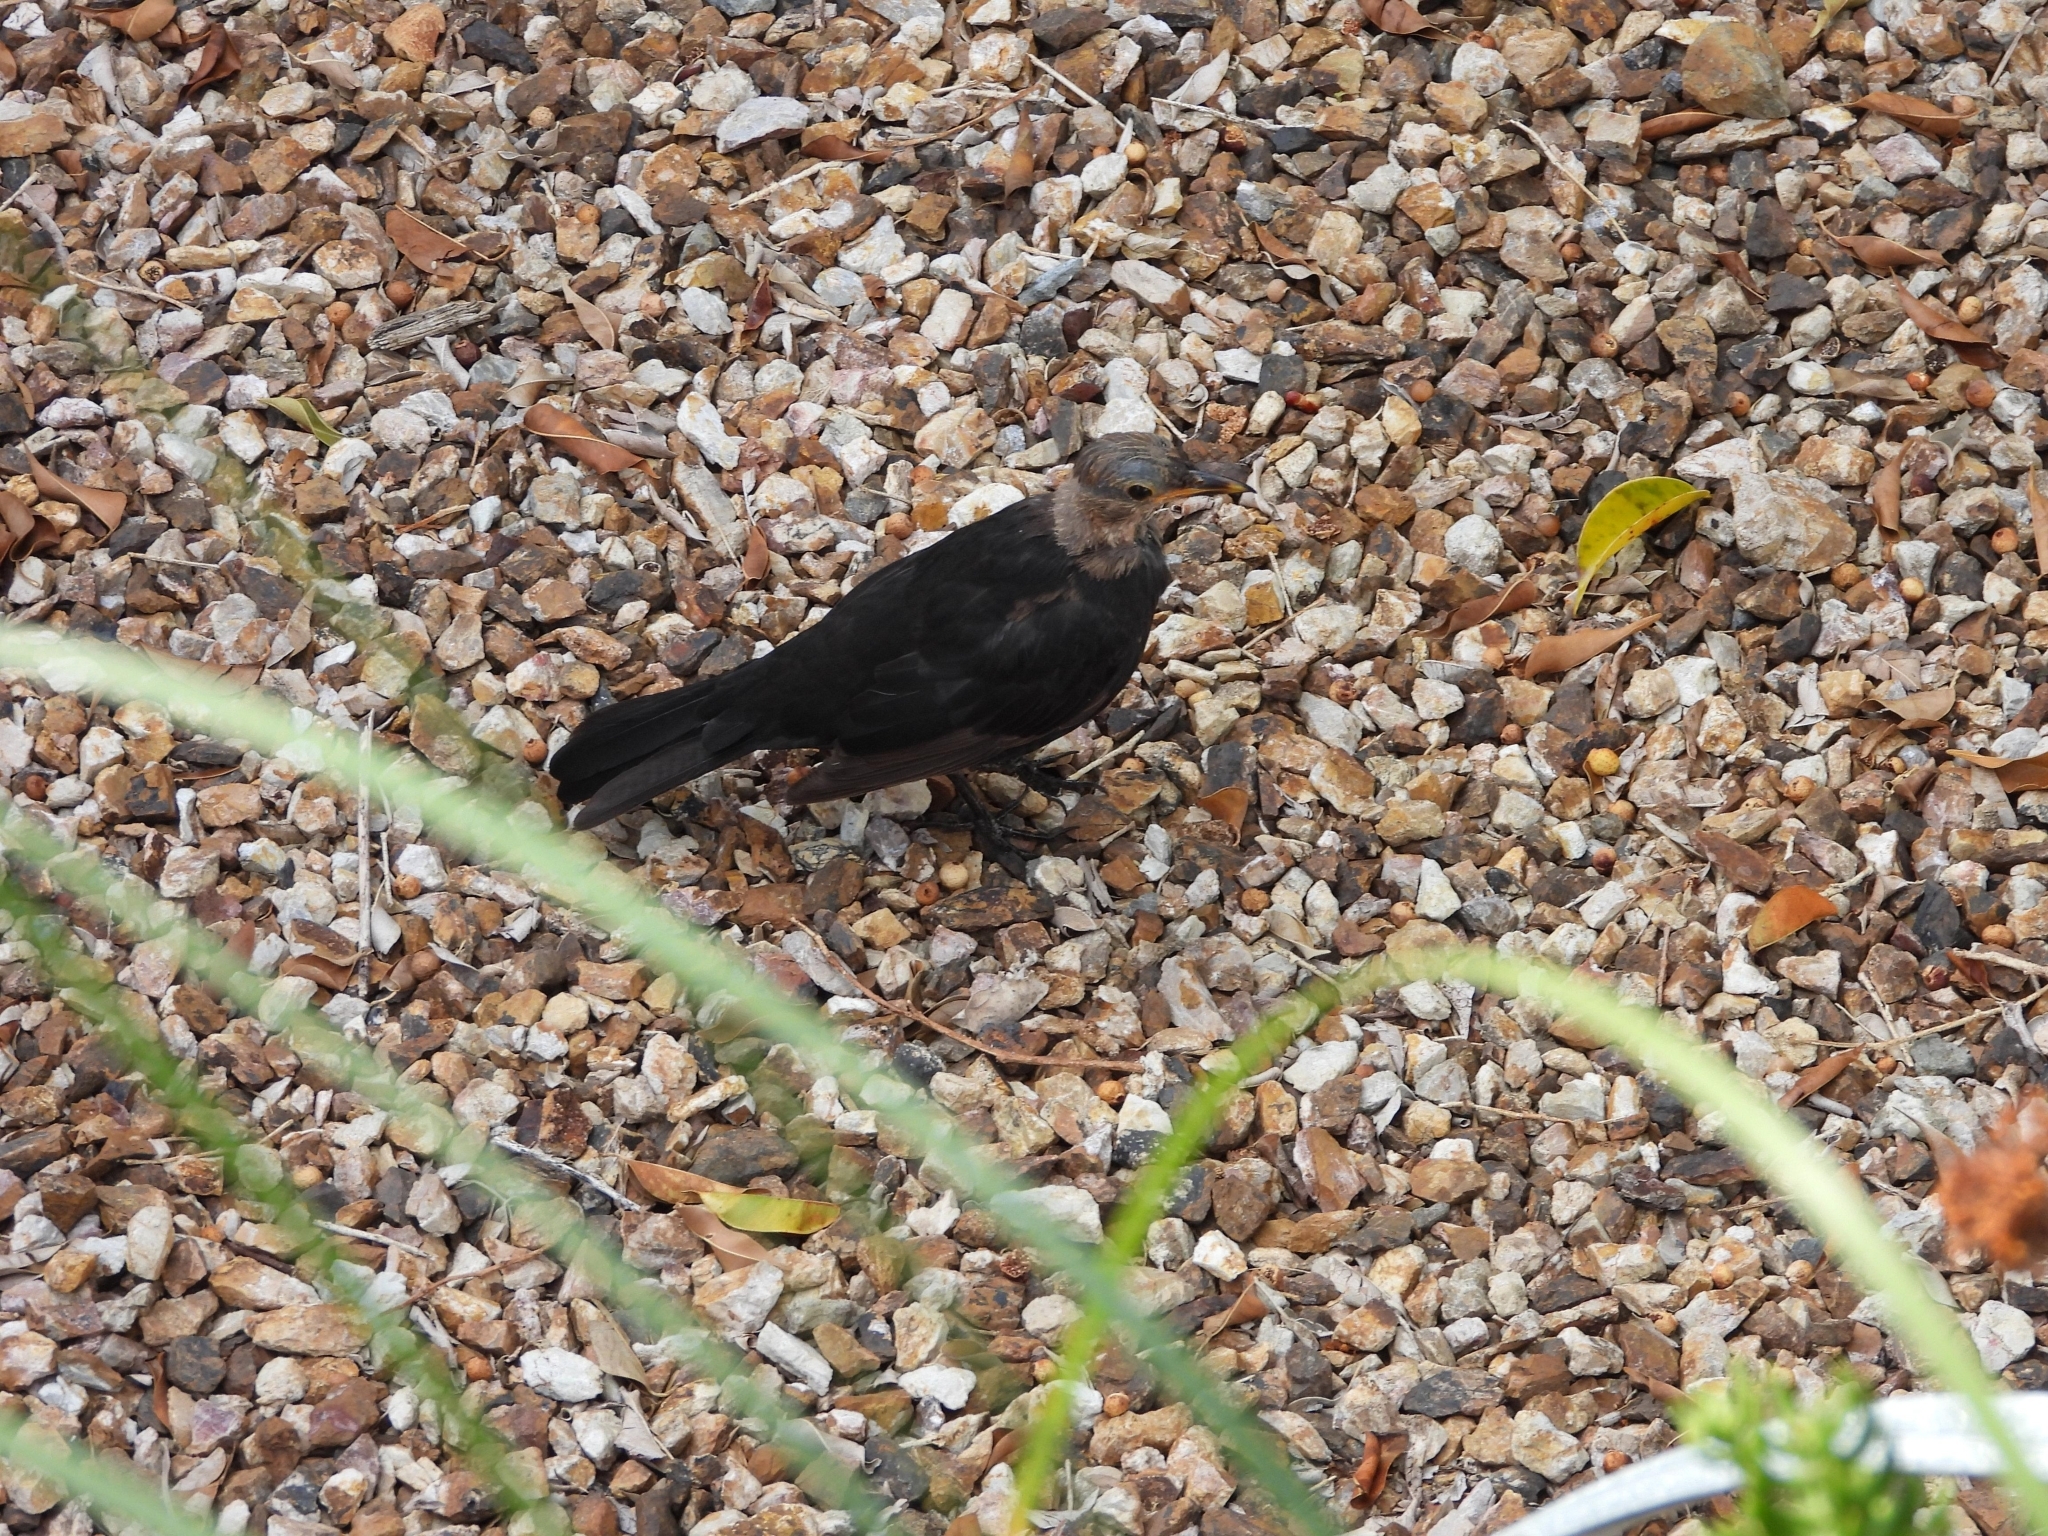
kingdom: Animalia
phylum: Chordata
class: Aves
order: Passeriformes
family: Turdidae
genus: Turdus
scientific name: Turdus merula
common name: Common blackbird
